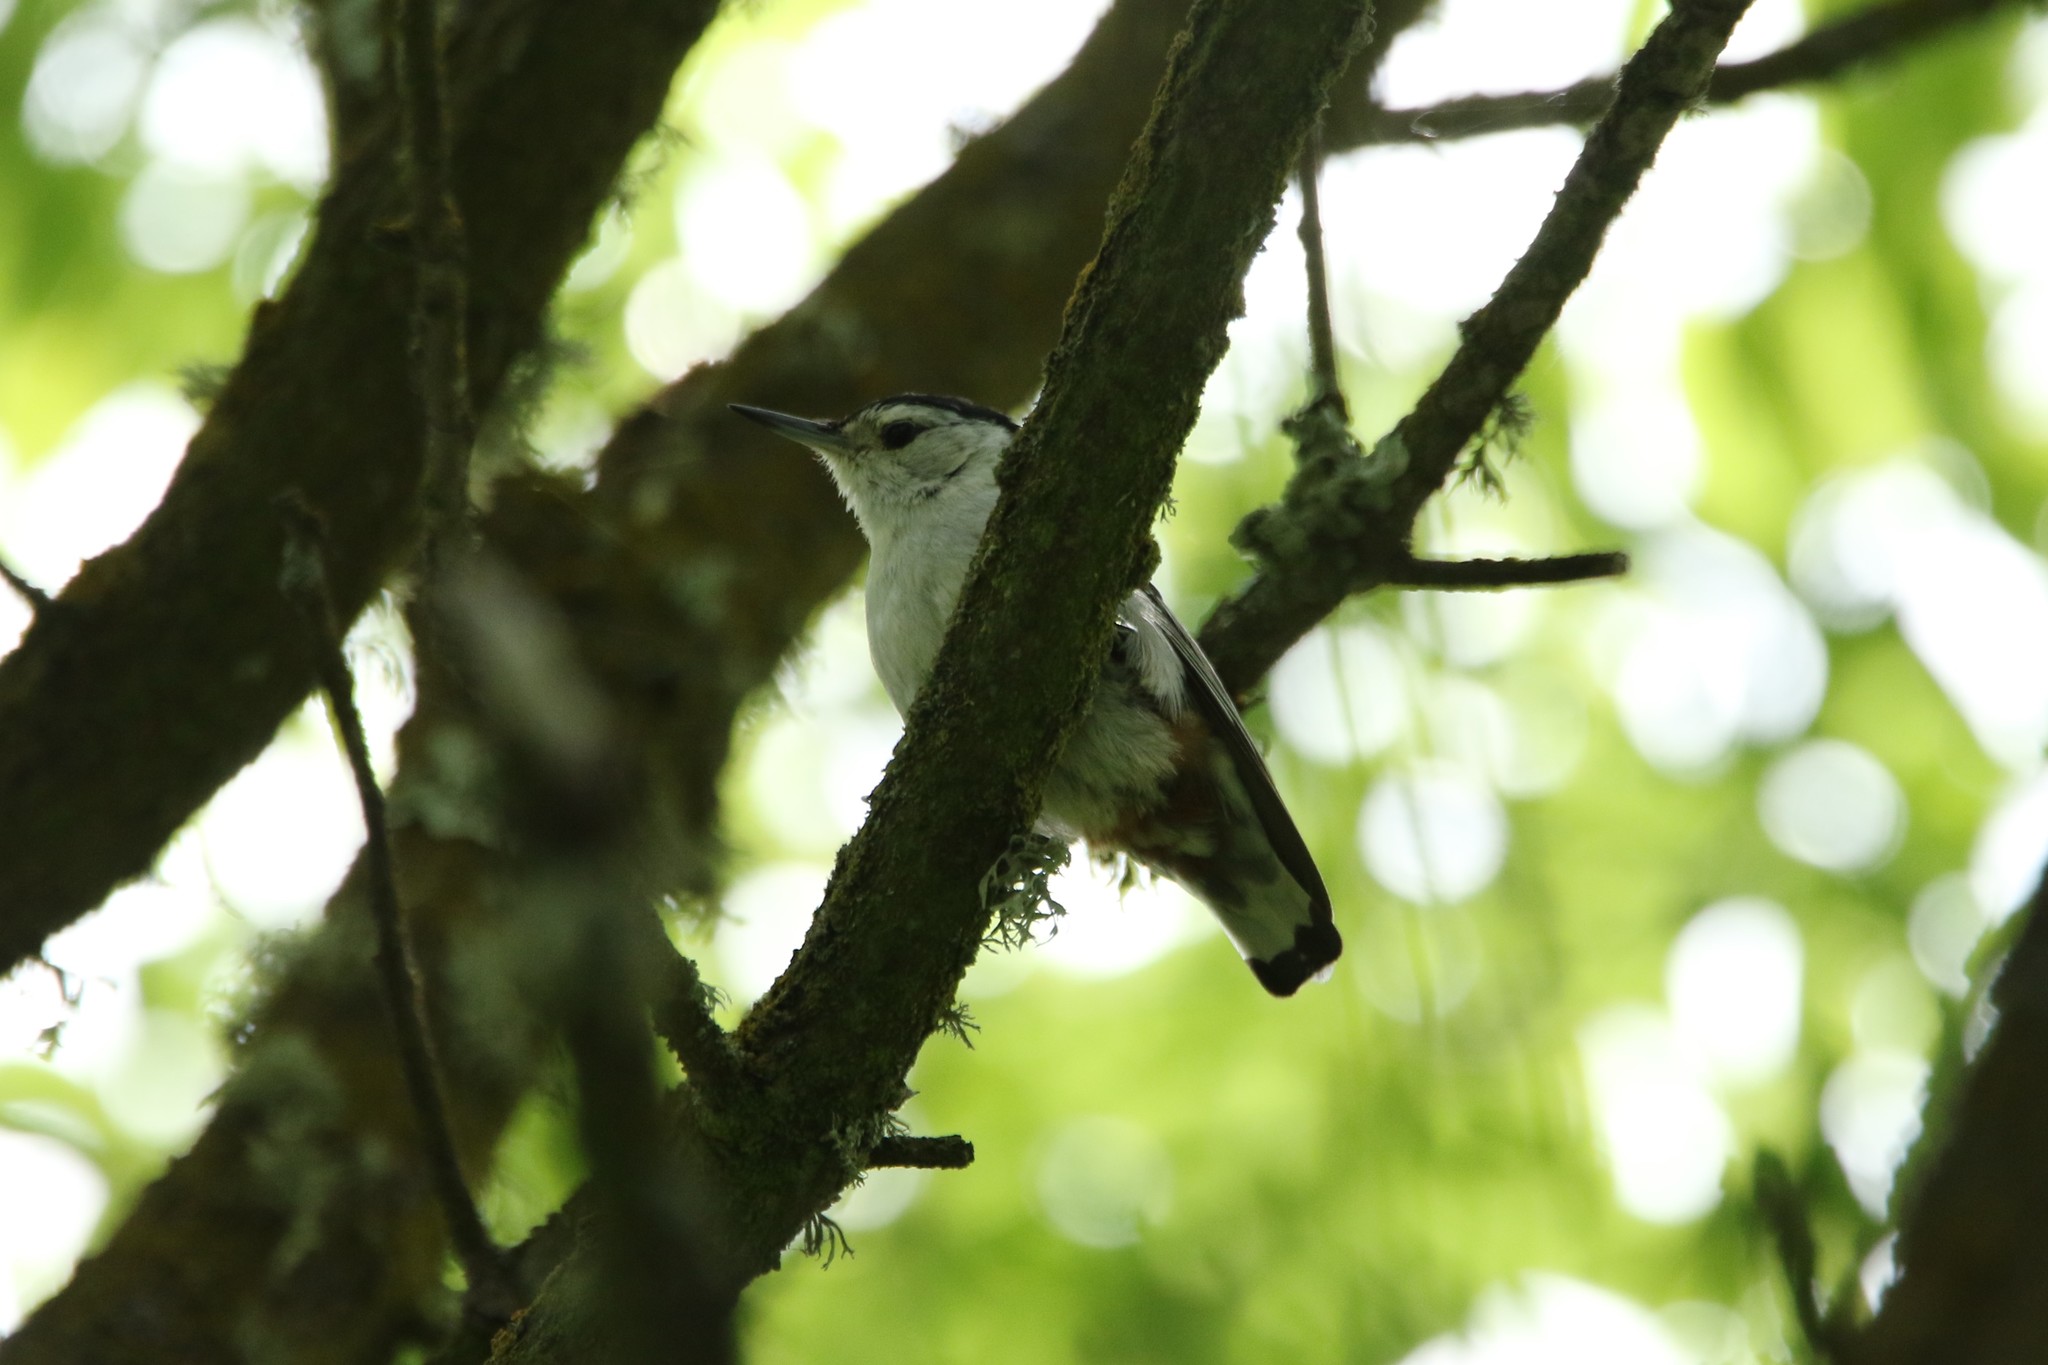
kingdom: Animalia
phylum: Chordata
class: Aves
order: Passeriformes
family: Sittidae
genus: Sitta
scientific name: Sitta carolinensis
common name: White-breasted nuthatch
